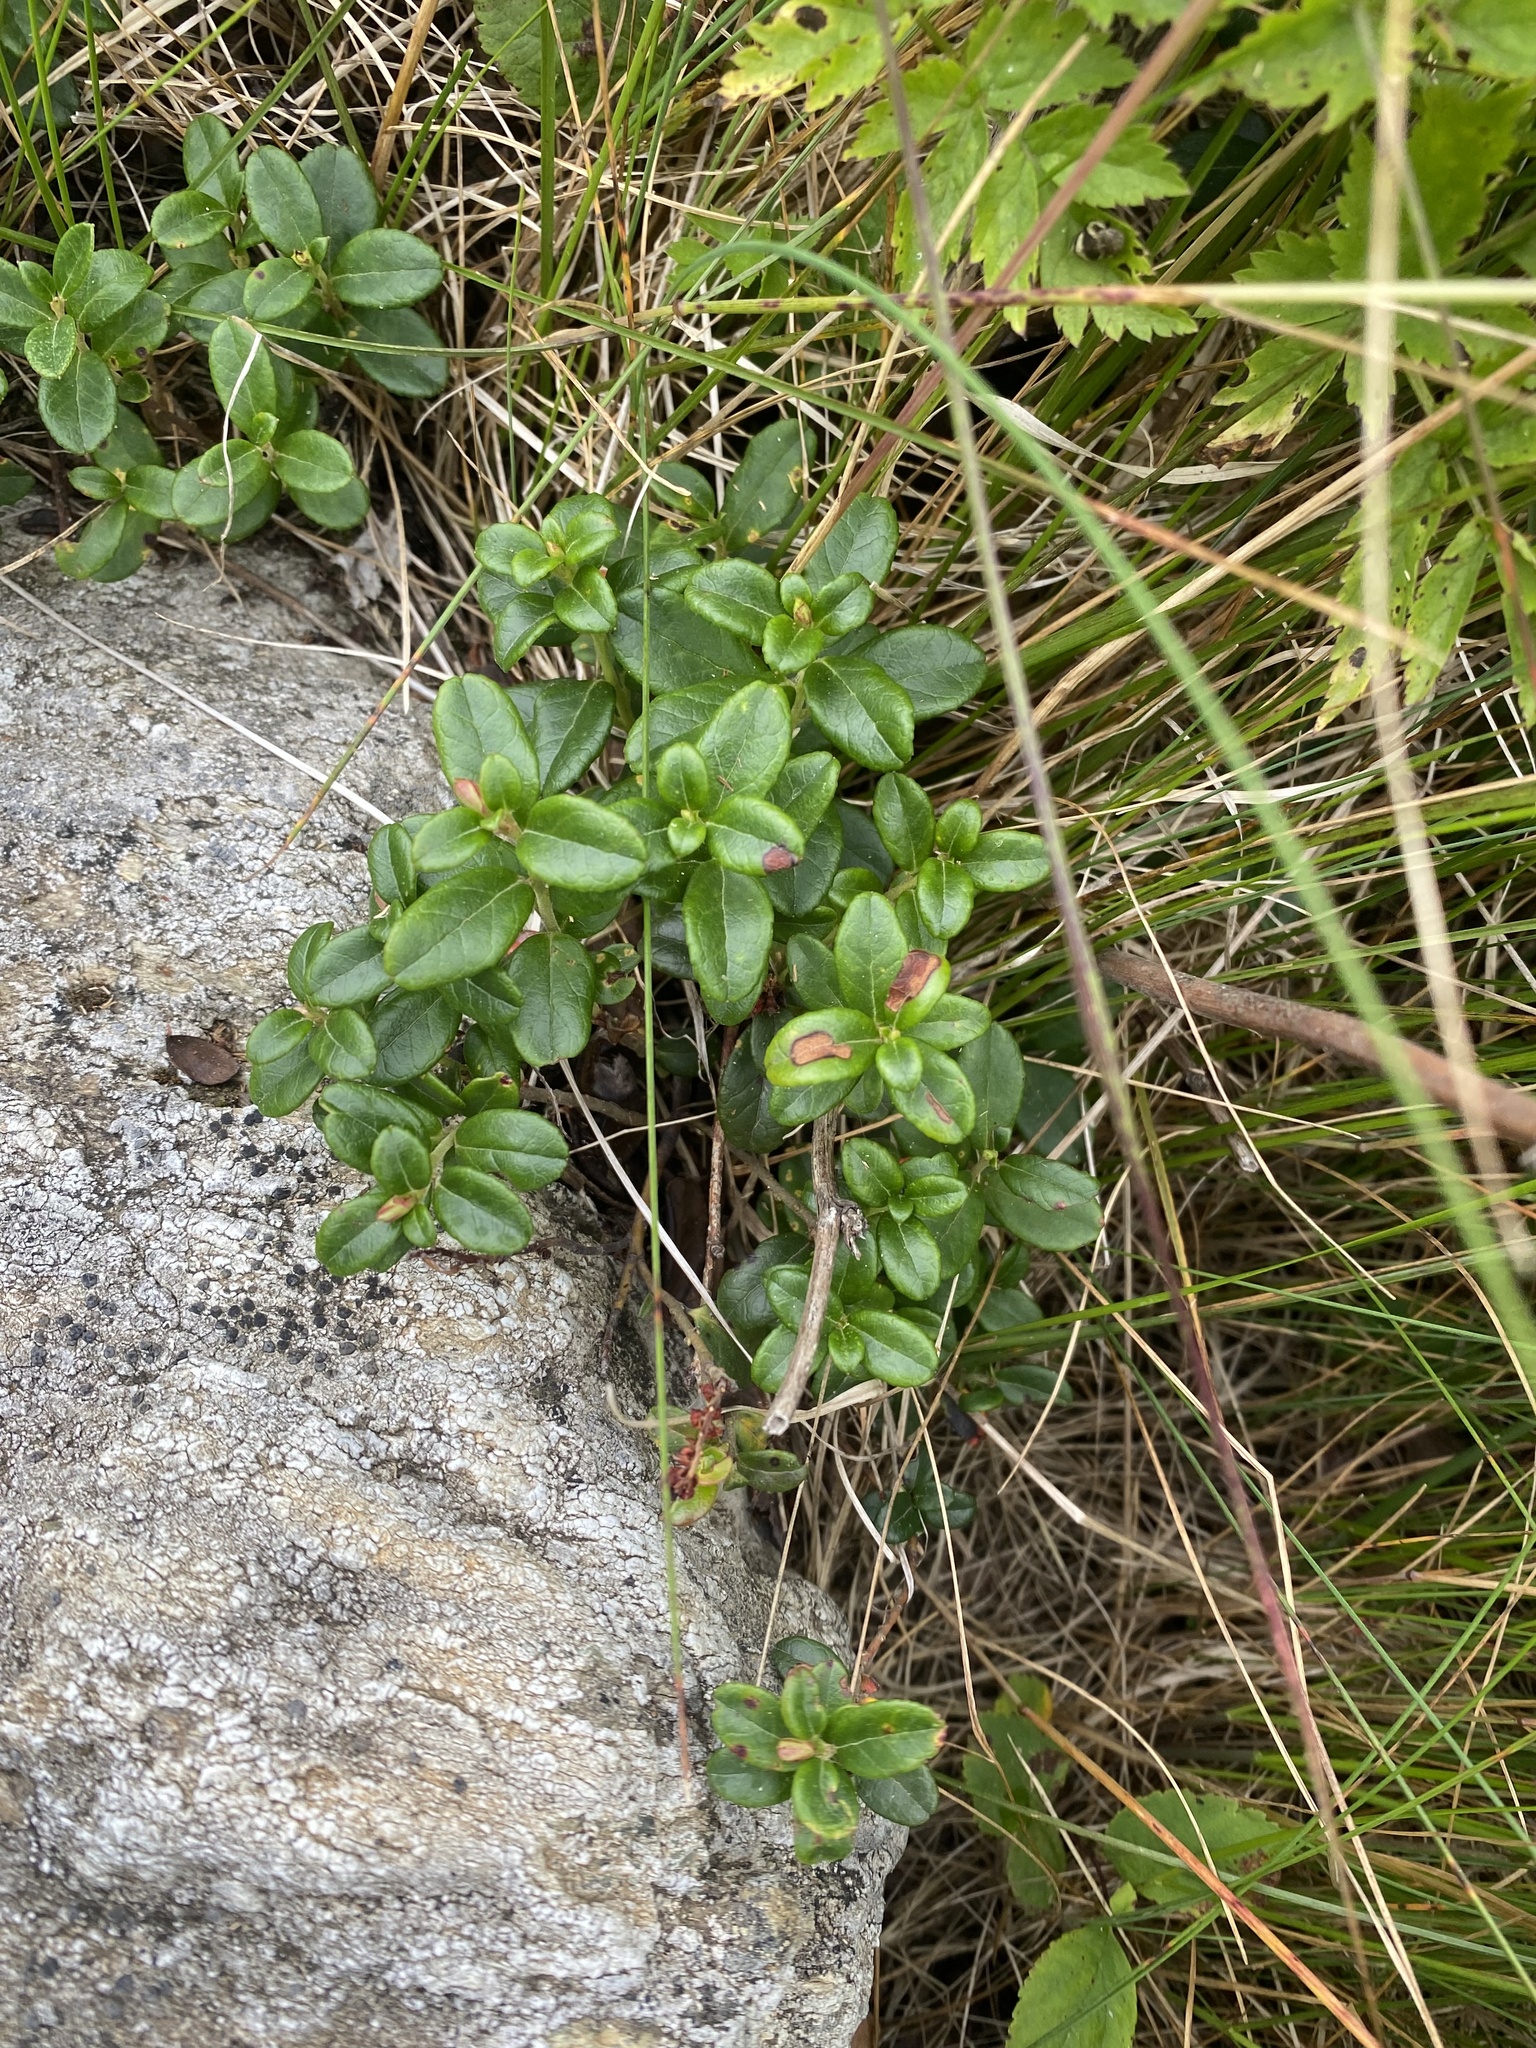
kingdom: Plantae
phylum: Tracheophyta
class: Magnoliopsida
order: Ericales
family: Ericaceae
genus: Vaccinium
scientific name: Vaccinium vitis-idaea
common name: Cowberry
